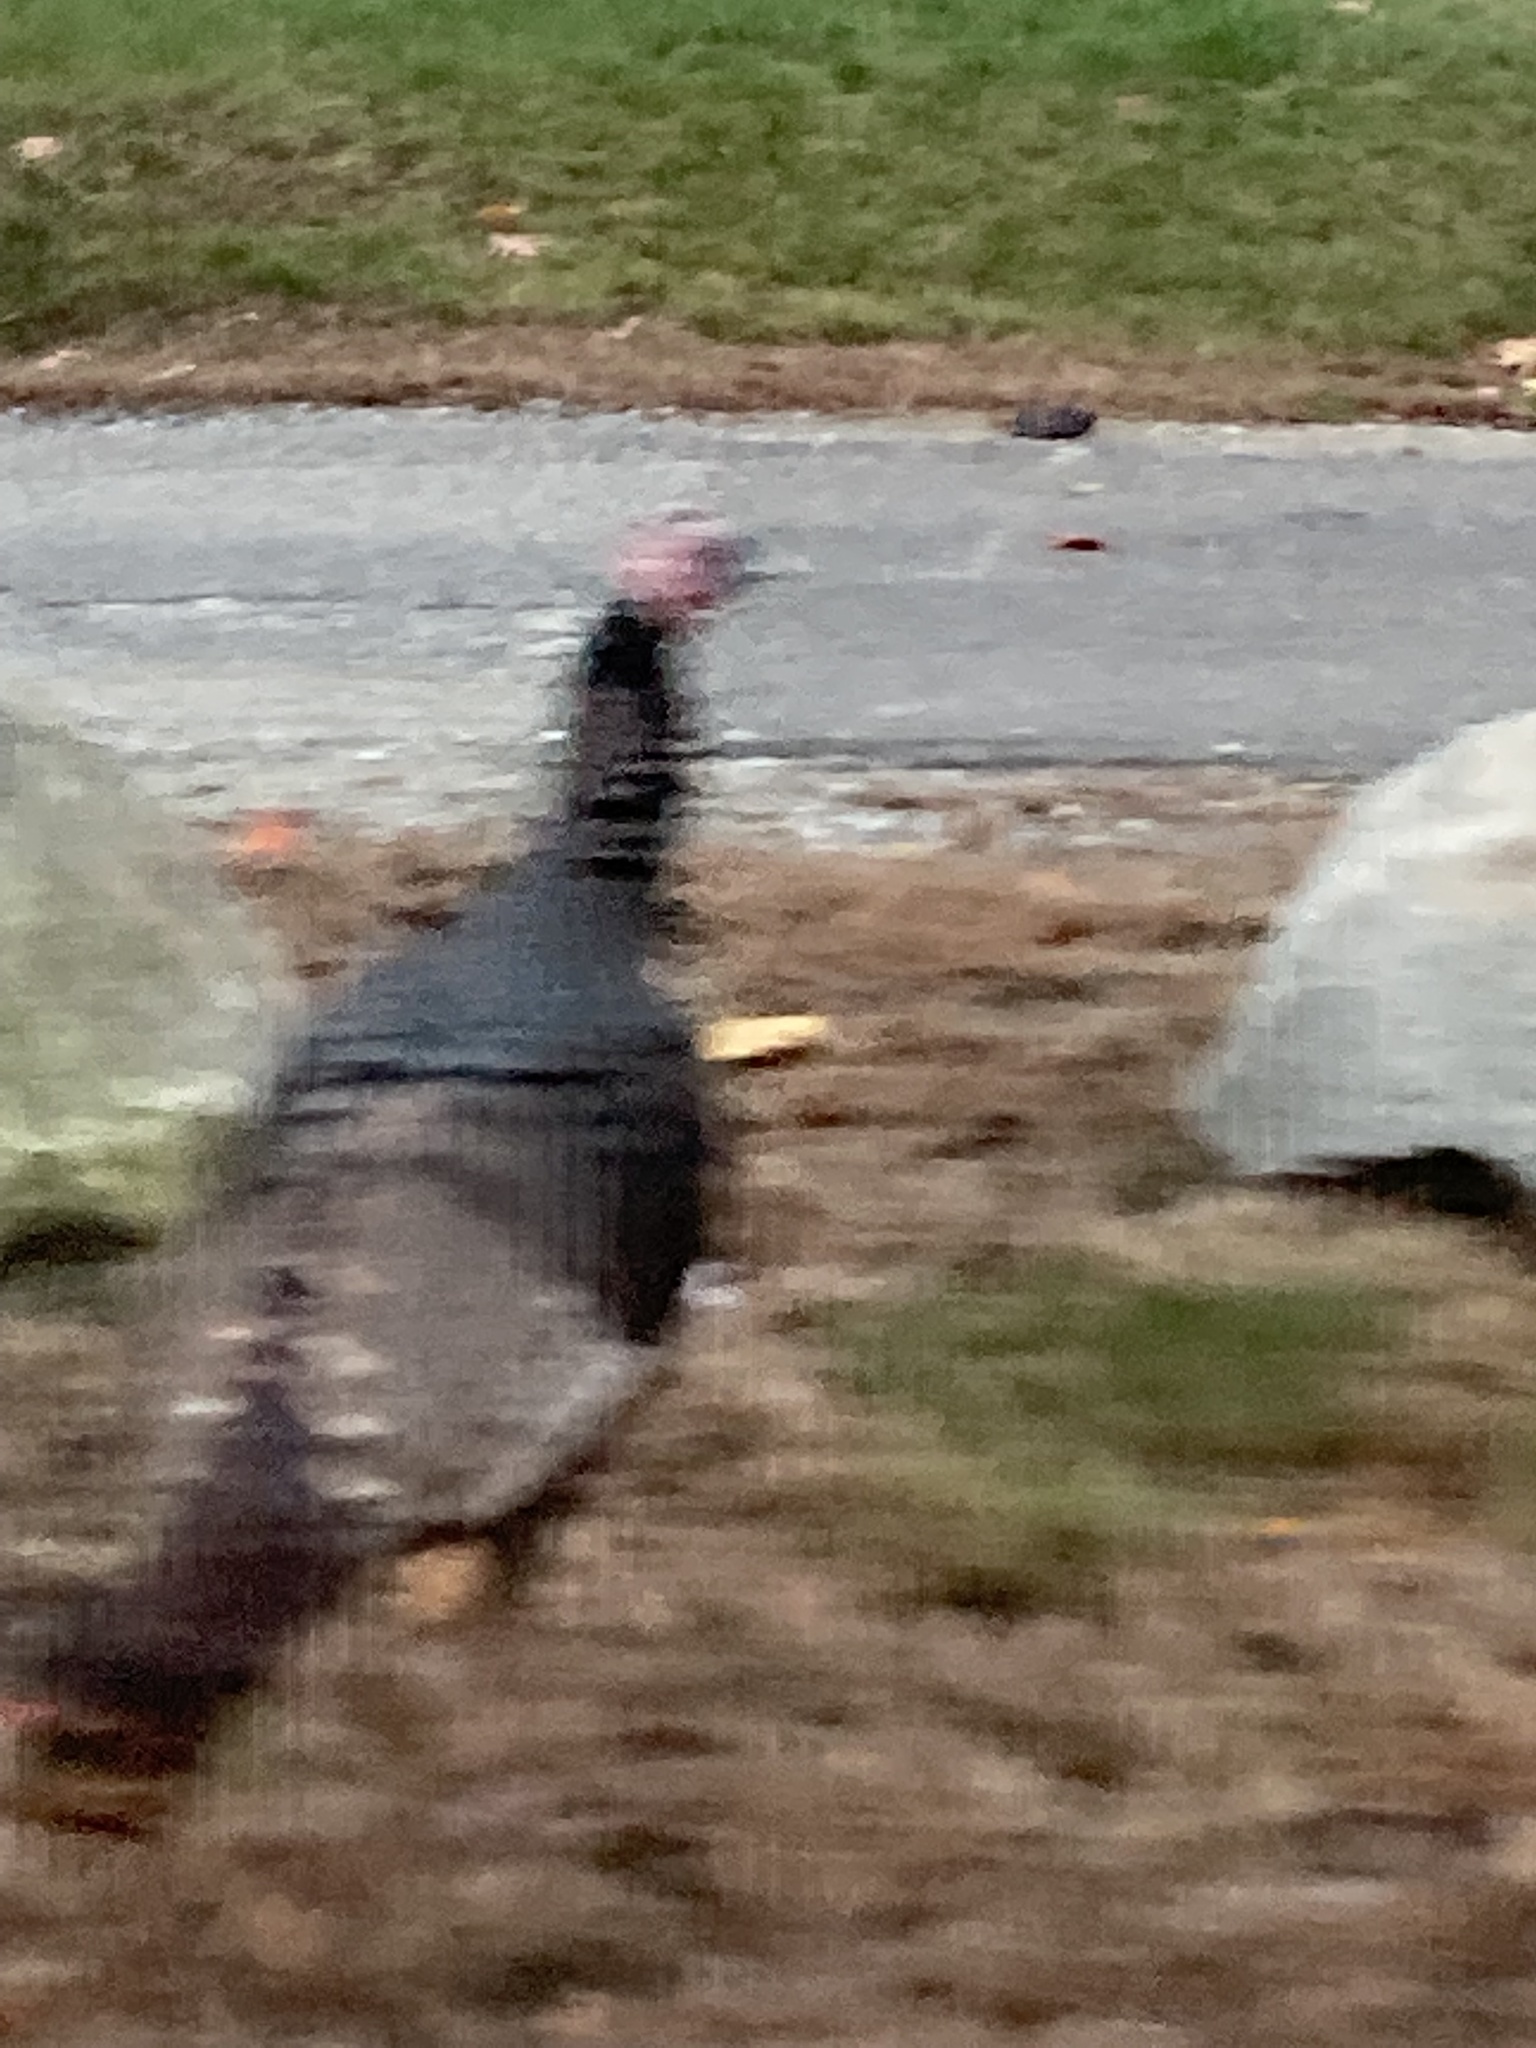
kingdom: Animalia
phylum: Chordata
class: Aves
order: Galliformes
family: Phasianidae
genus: Meleagris
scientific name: Meleagris gallopavo
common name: Wild turkey
